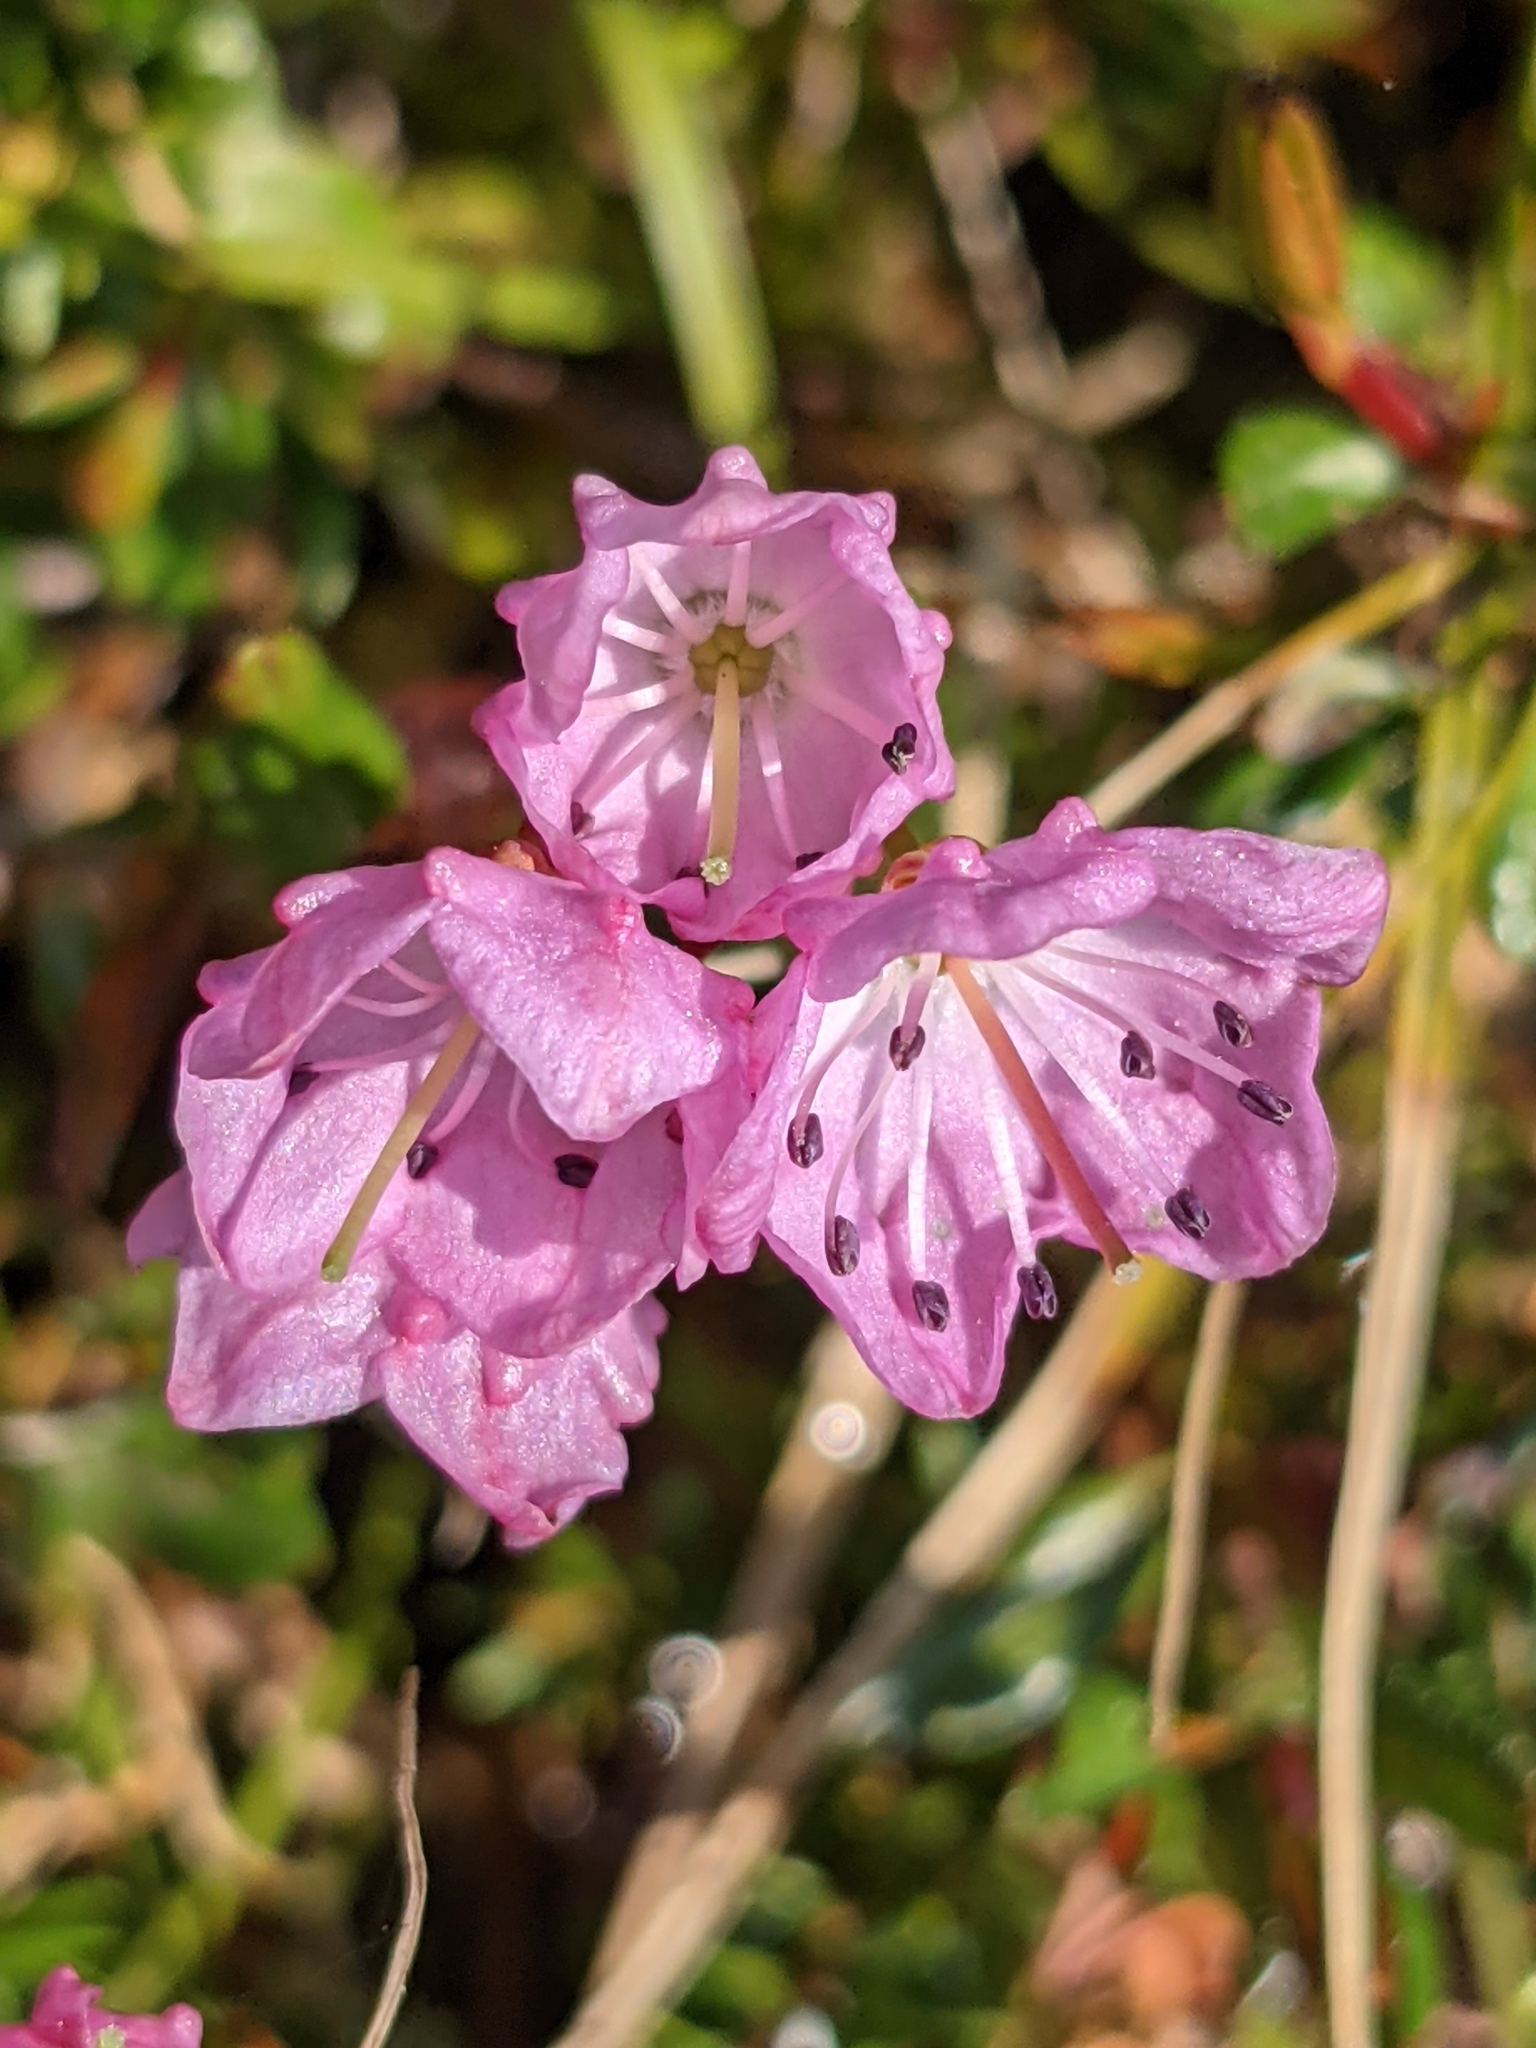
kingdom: Plantae
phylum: Tracheophyta
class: Magnoliopsida
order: Ericales
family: Ericaceae
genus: Kalmia
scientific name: Kalmia microphylla
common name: Alpine bog laurel
